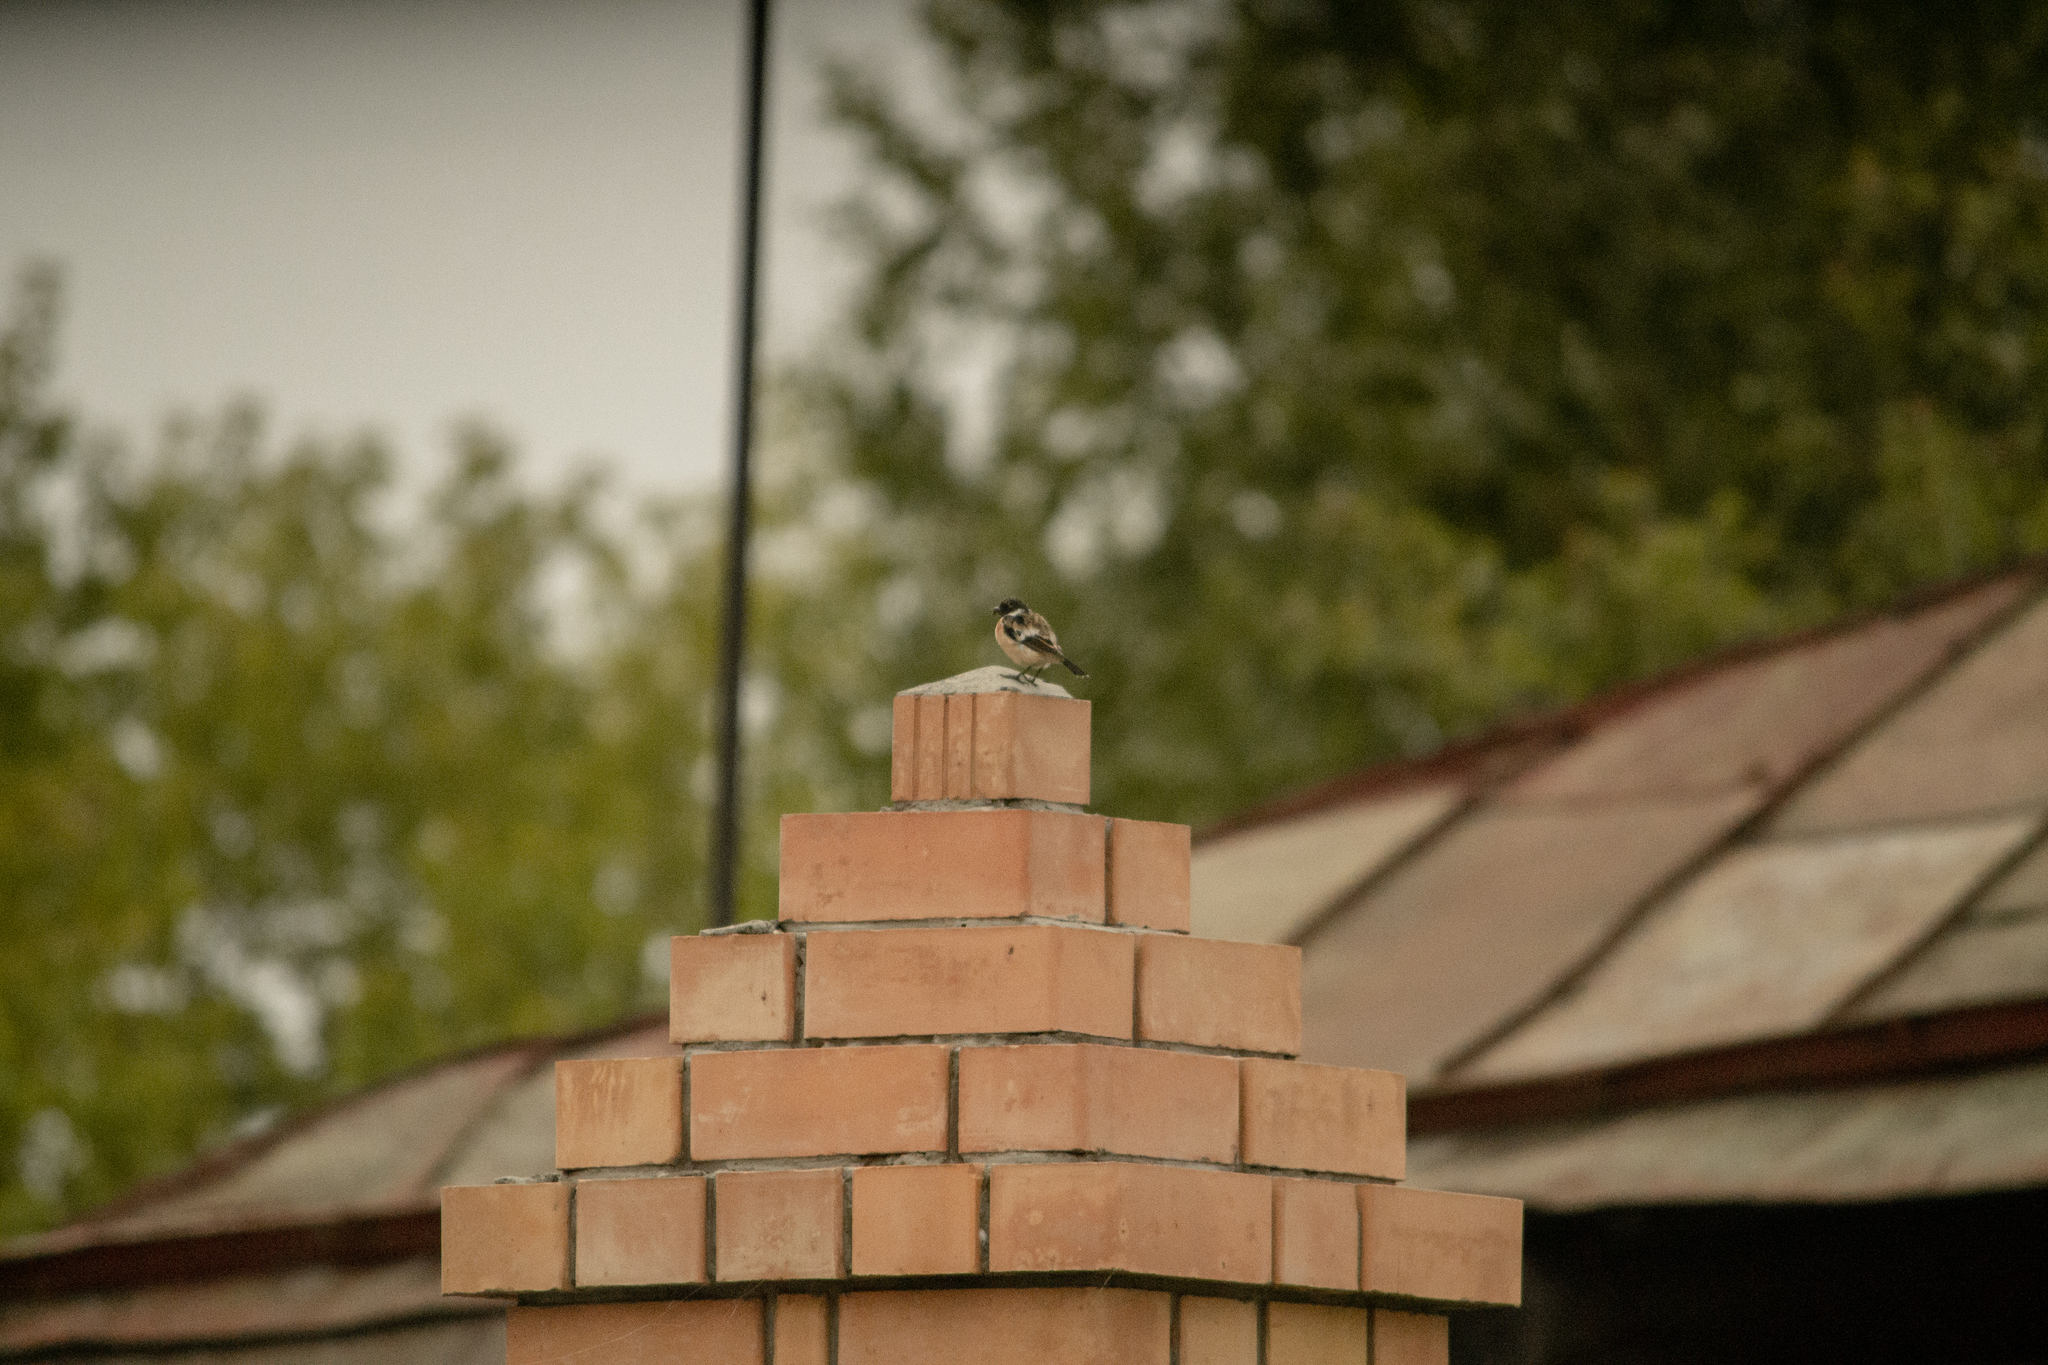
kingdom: Animalia
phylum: Chordata
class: Aves
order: Passeriformes
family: Muscicapidae
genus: Saxicola
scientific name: Saxicola maurus
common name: Siberian stonechat
